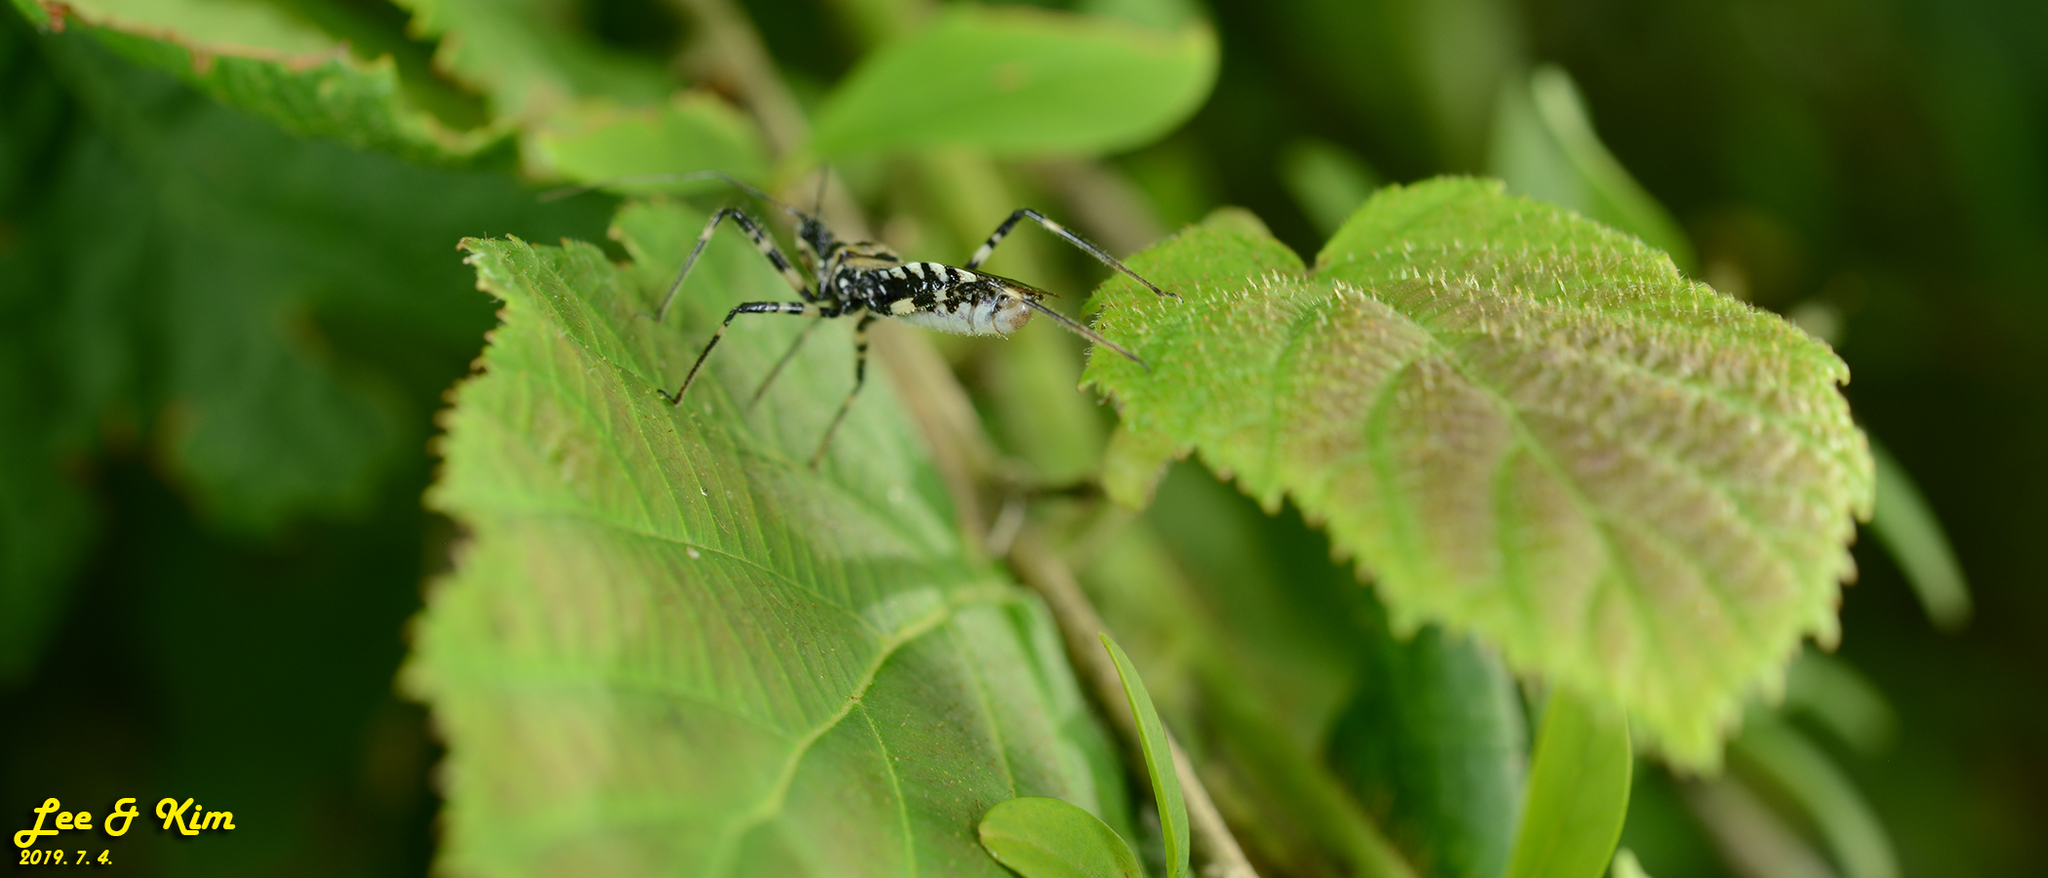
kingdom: Animalia
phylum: Arthropoda
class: Insecta
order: Hemiptera
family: Reduviidae
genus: Sphedanolestes
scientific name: Sphedanolestes impressicollis
